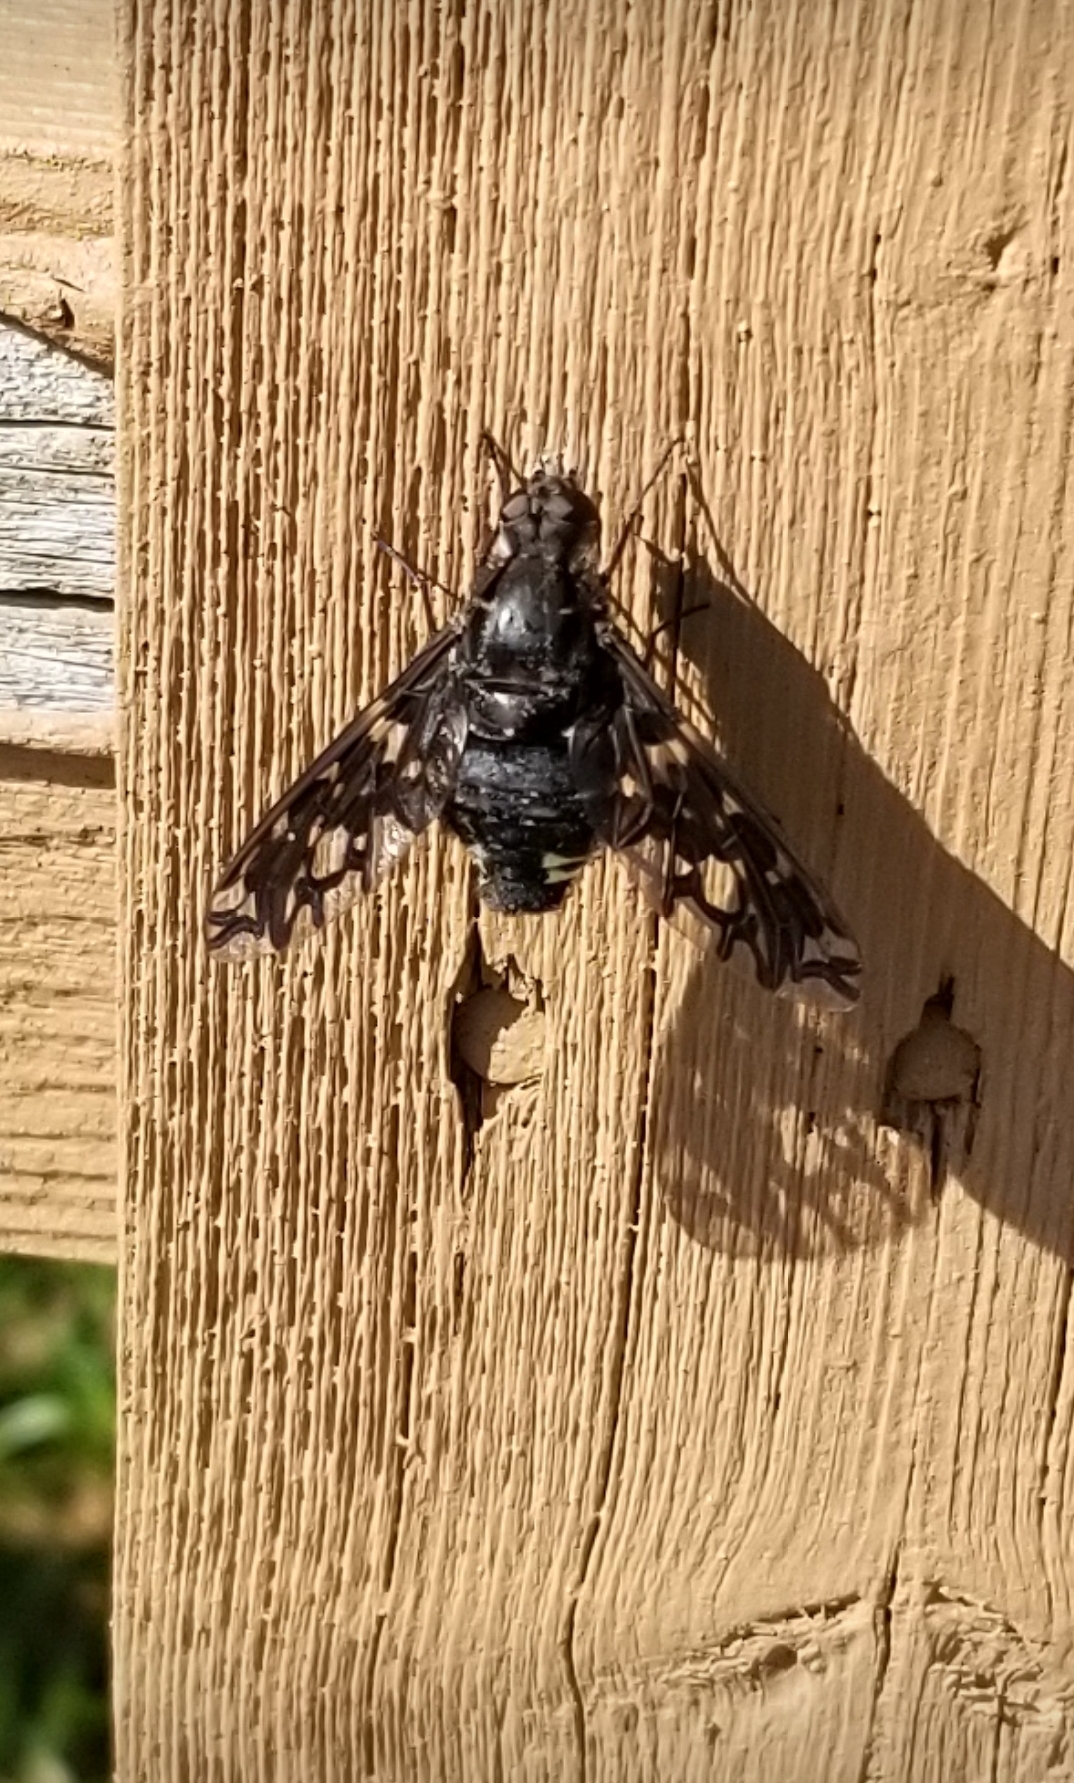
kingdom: Animalia
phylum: Arthropoda
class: Insecta
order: Diptera
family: Bombyliidae
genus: Xenox
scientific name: Xenox tigrinus
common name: Tiger bee fly
